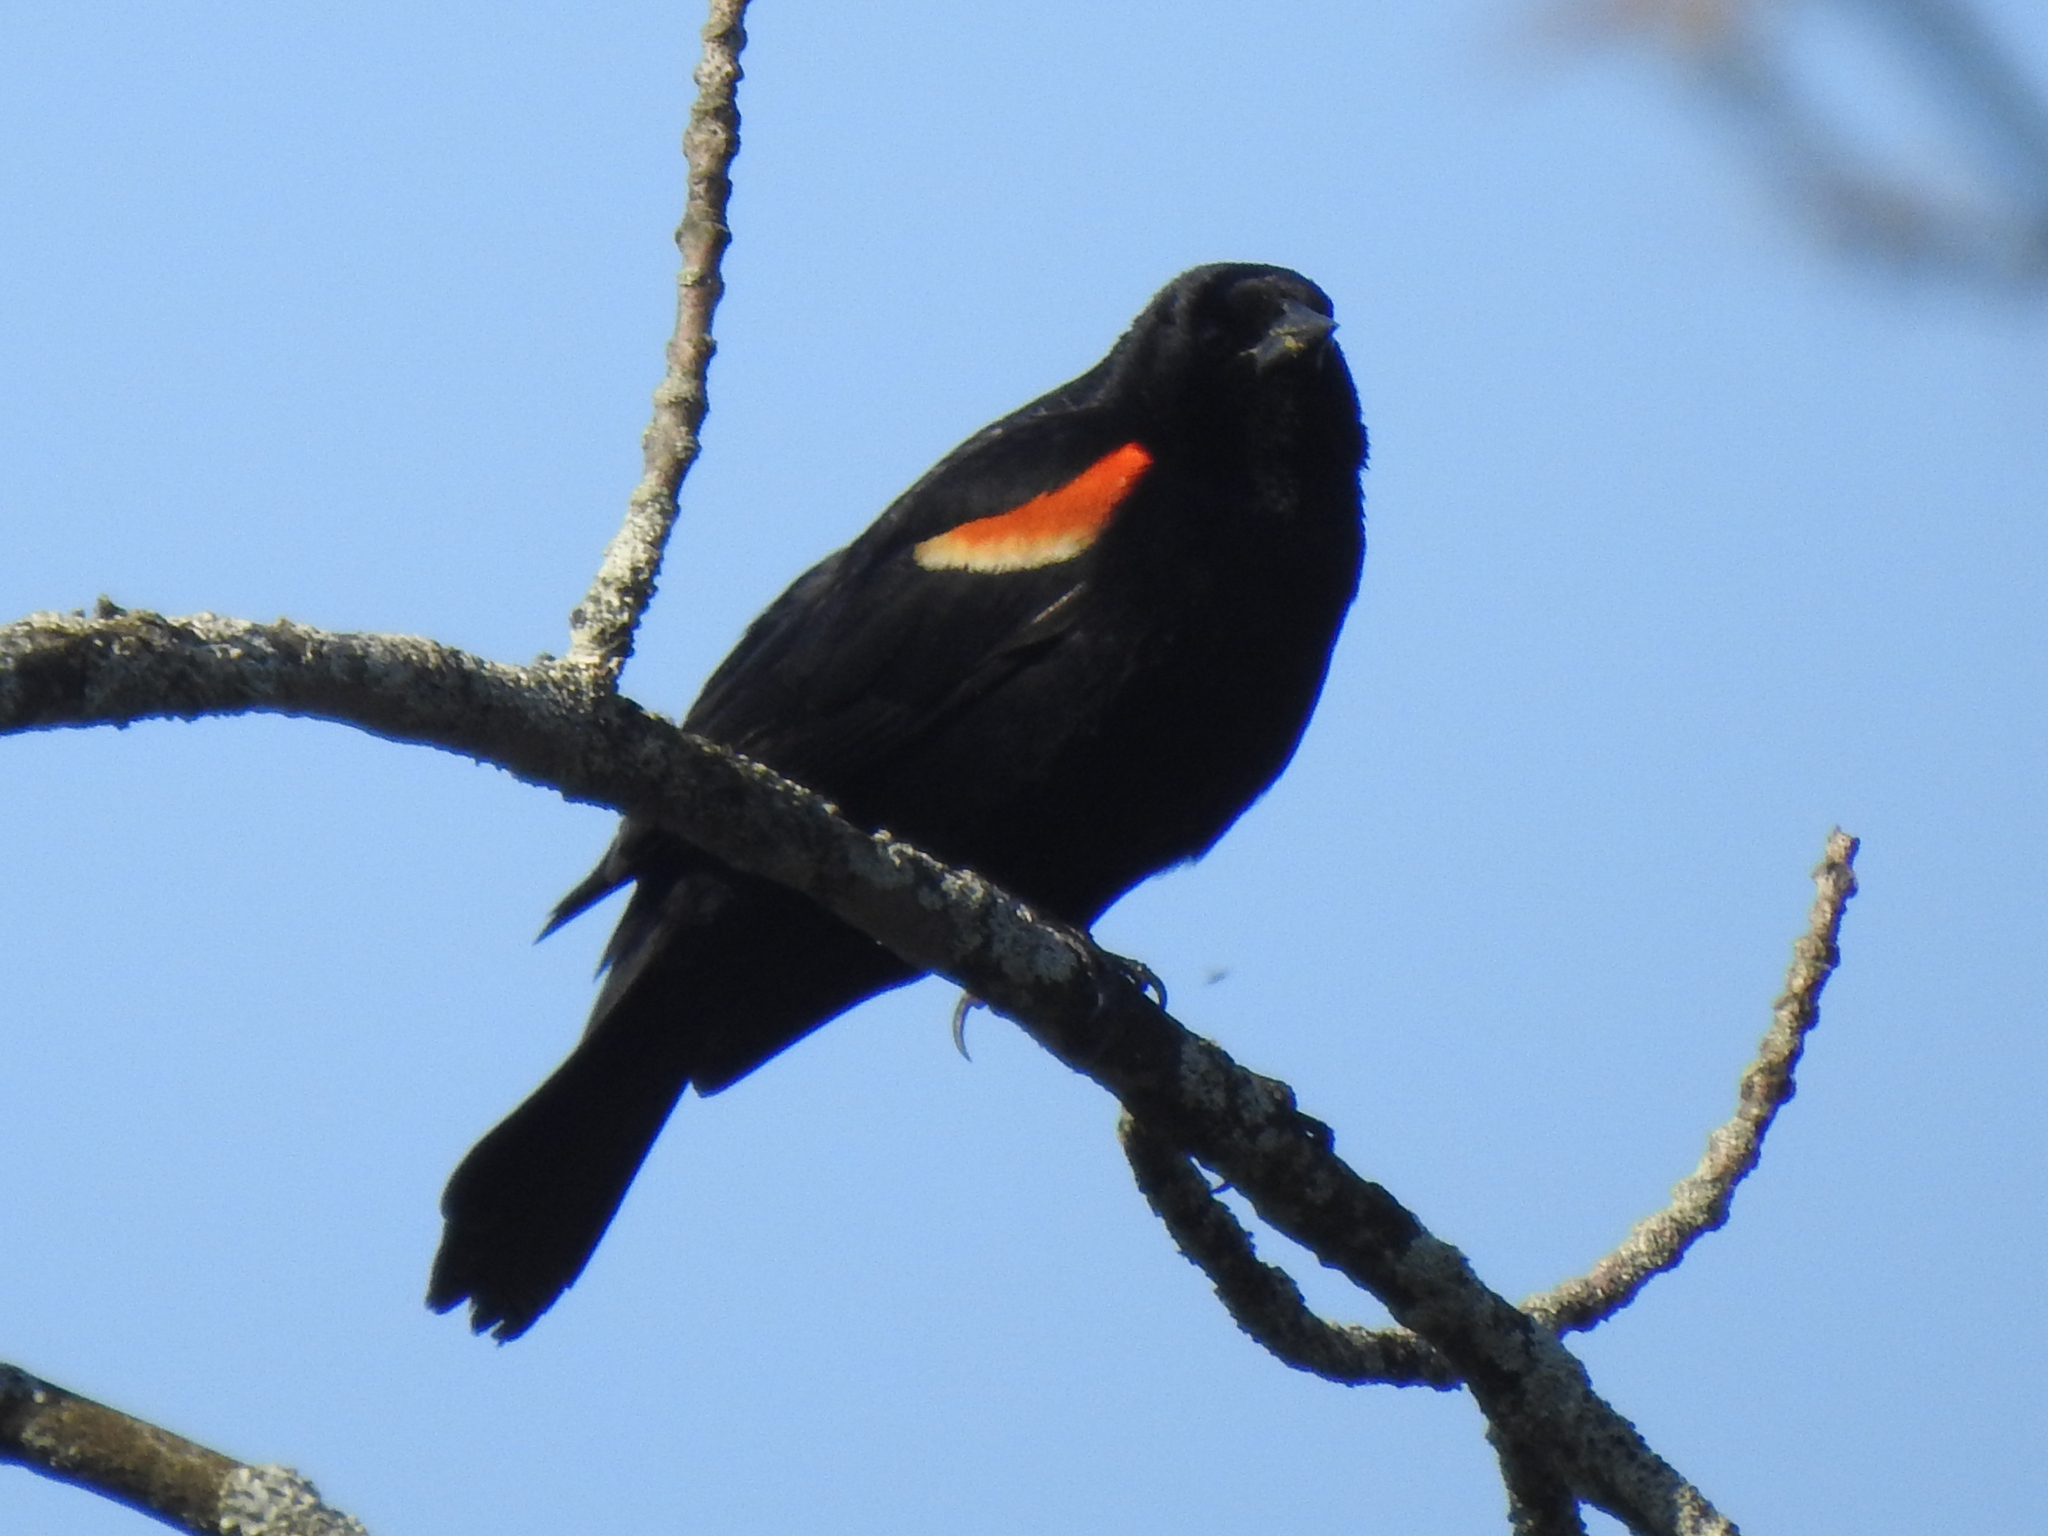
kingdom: Animalia
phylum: Chordata
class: Aves
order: Passeriformes
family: Icteridae
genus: Agelaius
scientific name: Agelaius phoeniceus
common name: Red-winged blackbird
